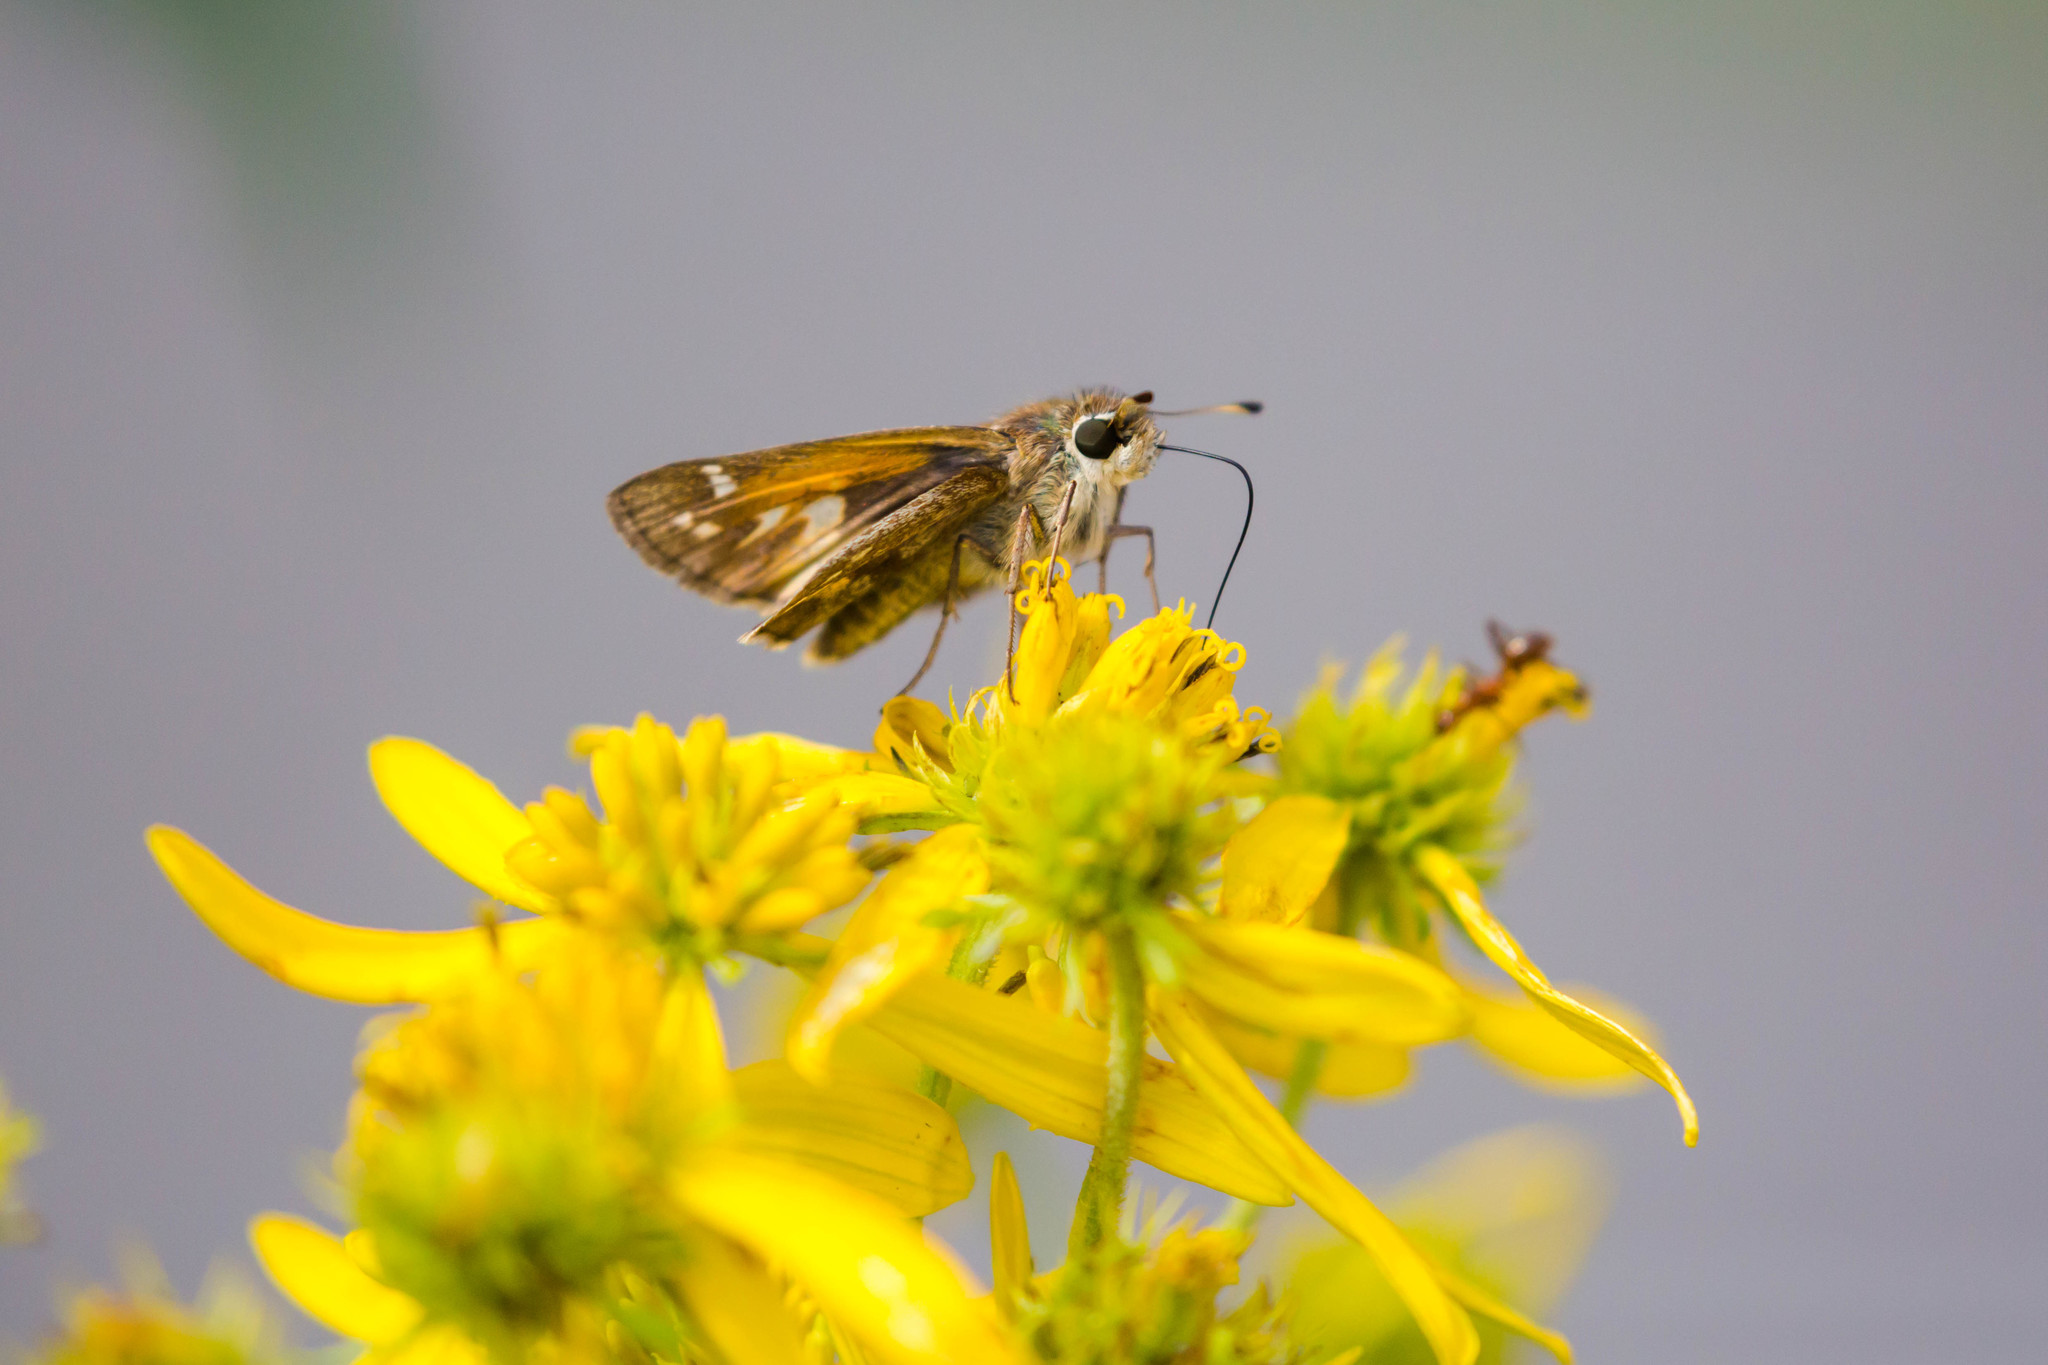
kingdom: Animalia
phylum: Arthropoda
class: Insecta
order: Lepidoptera
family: Hesperiidae
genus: Atalopedes
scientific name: Atalopedes
